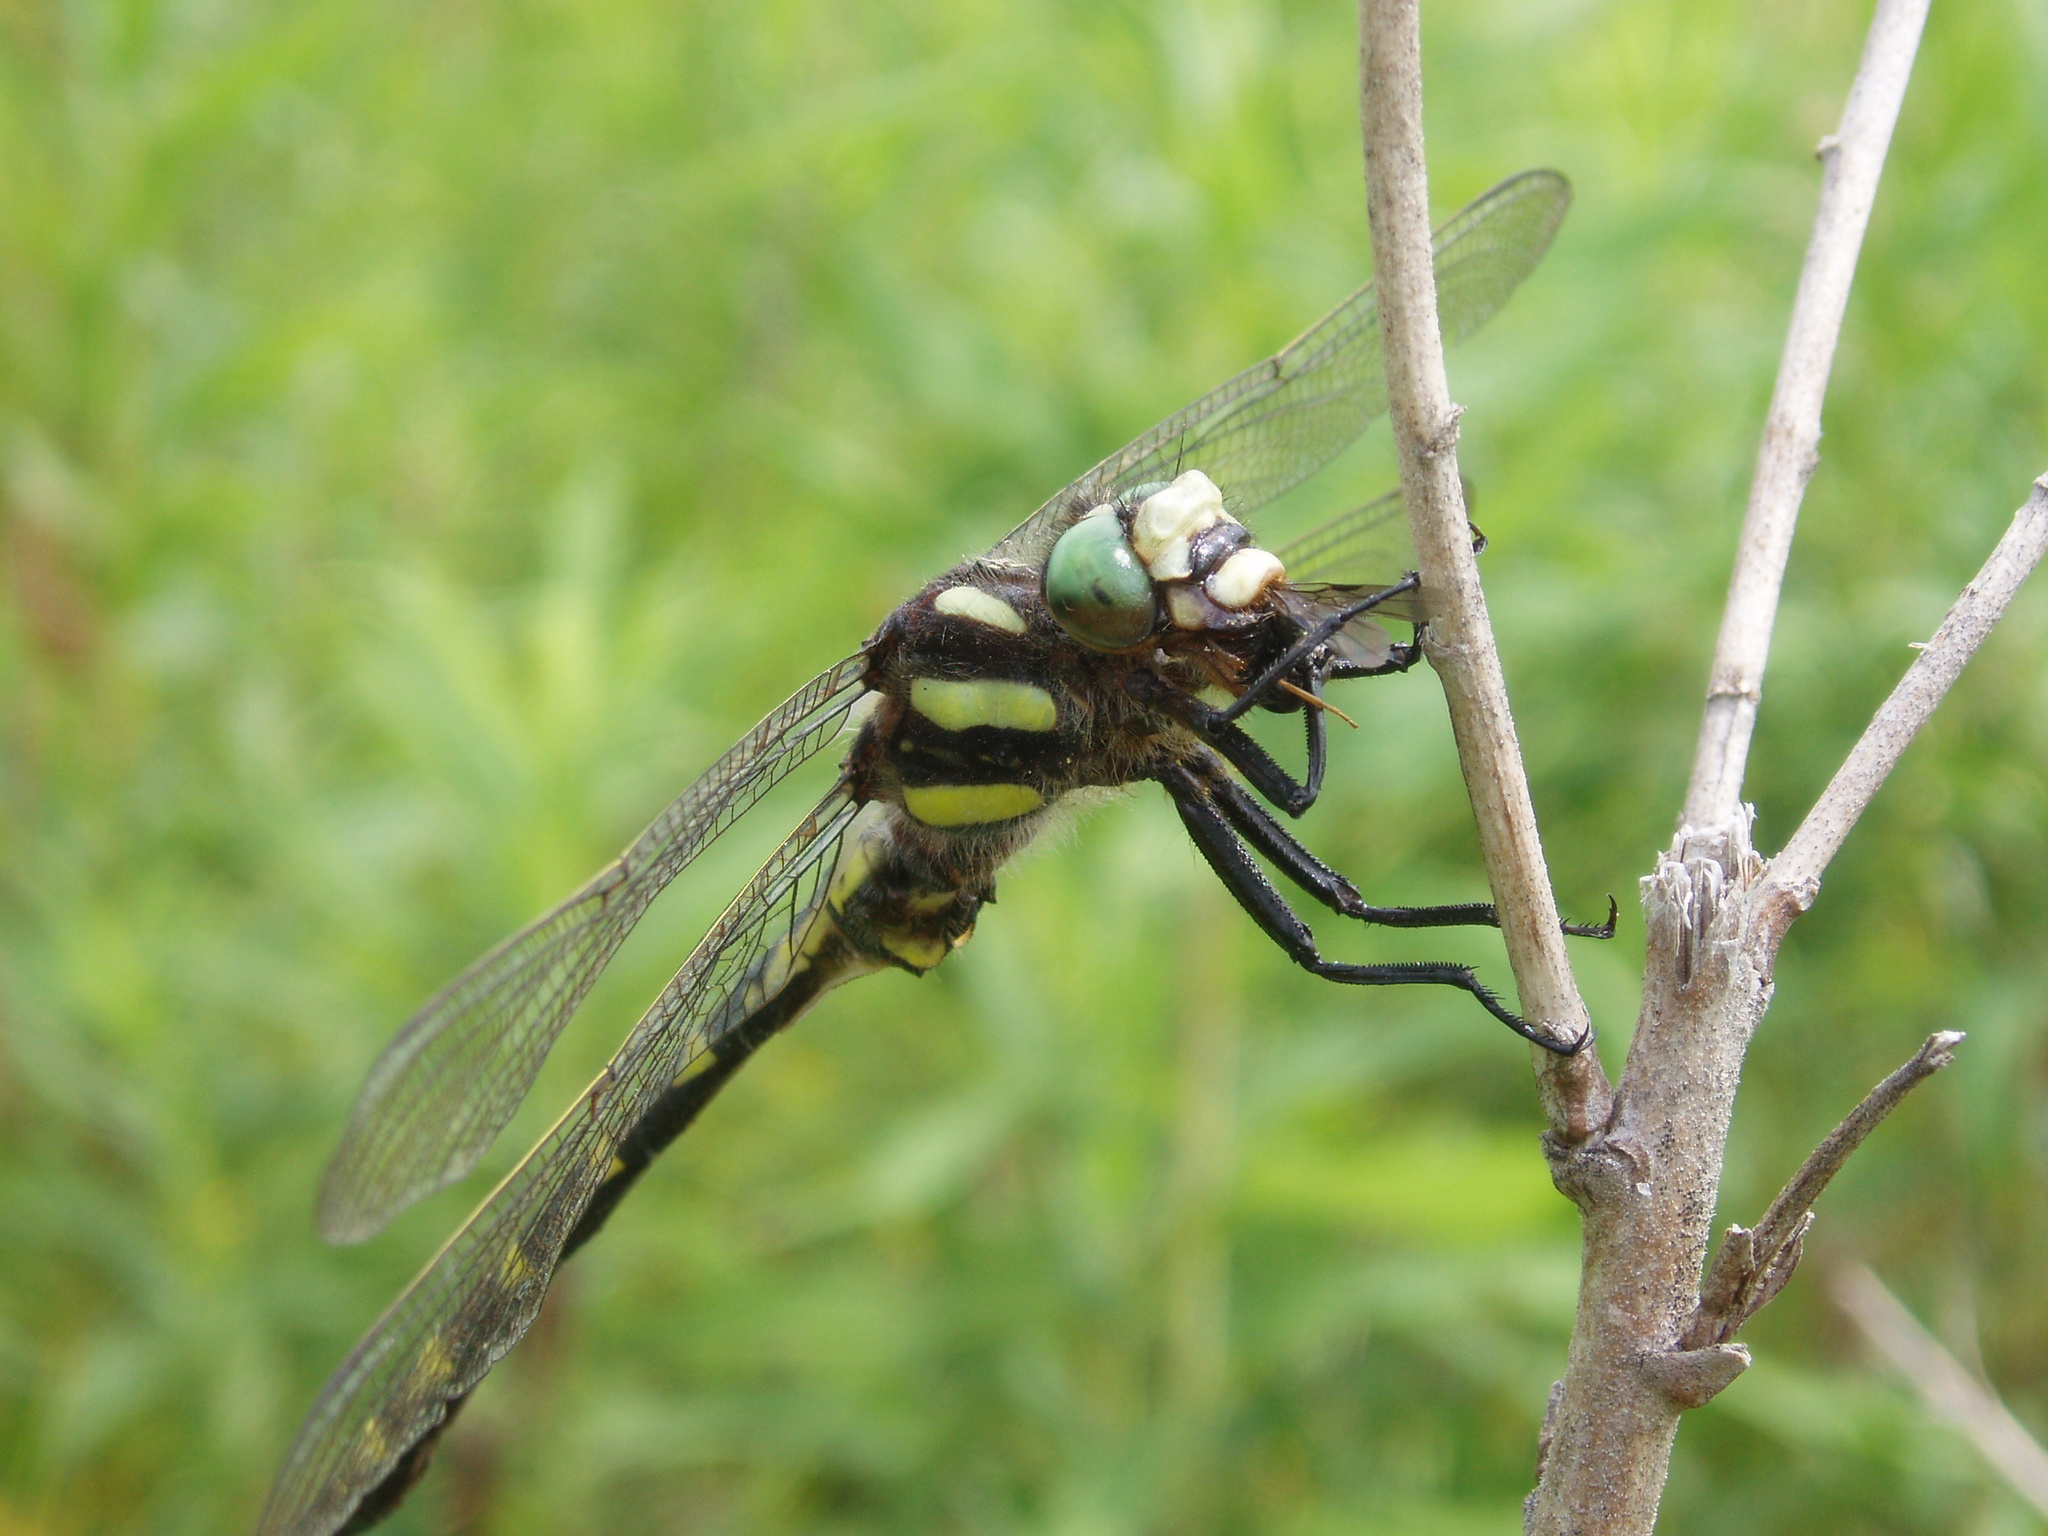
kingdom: Animalia
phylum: Arthropoda
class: Insecta
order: Odonata
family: Cordulegastridae
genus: Cordulegaster
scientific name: Cordulegaster diastatops
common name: Delta-spotted spiketail
